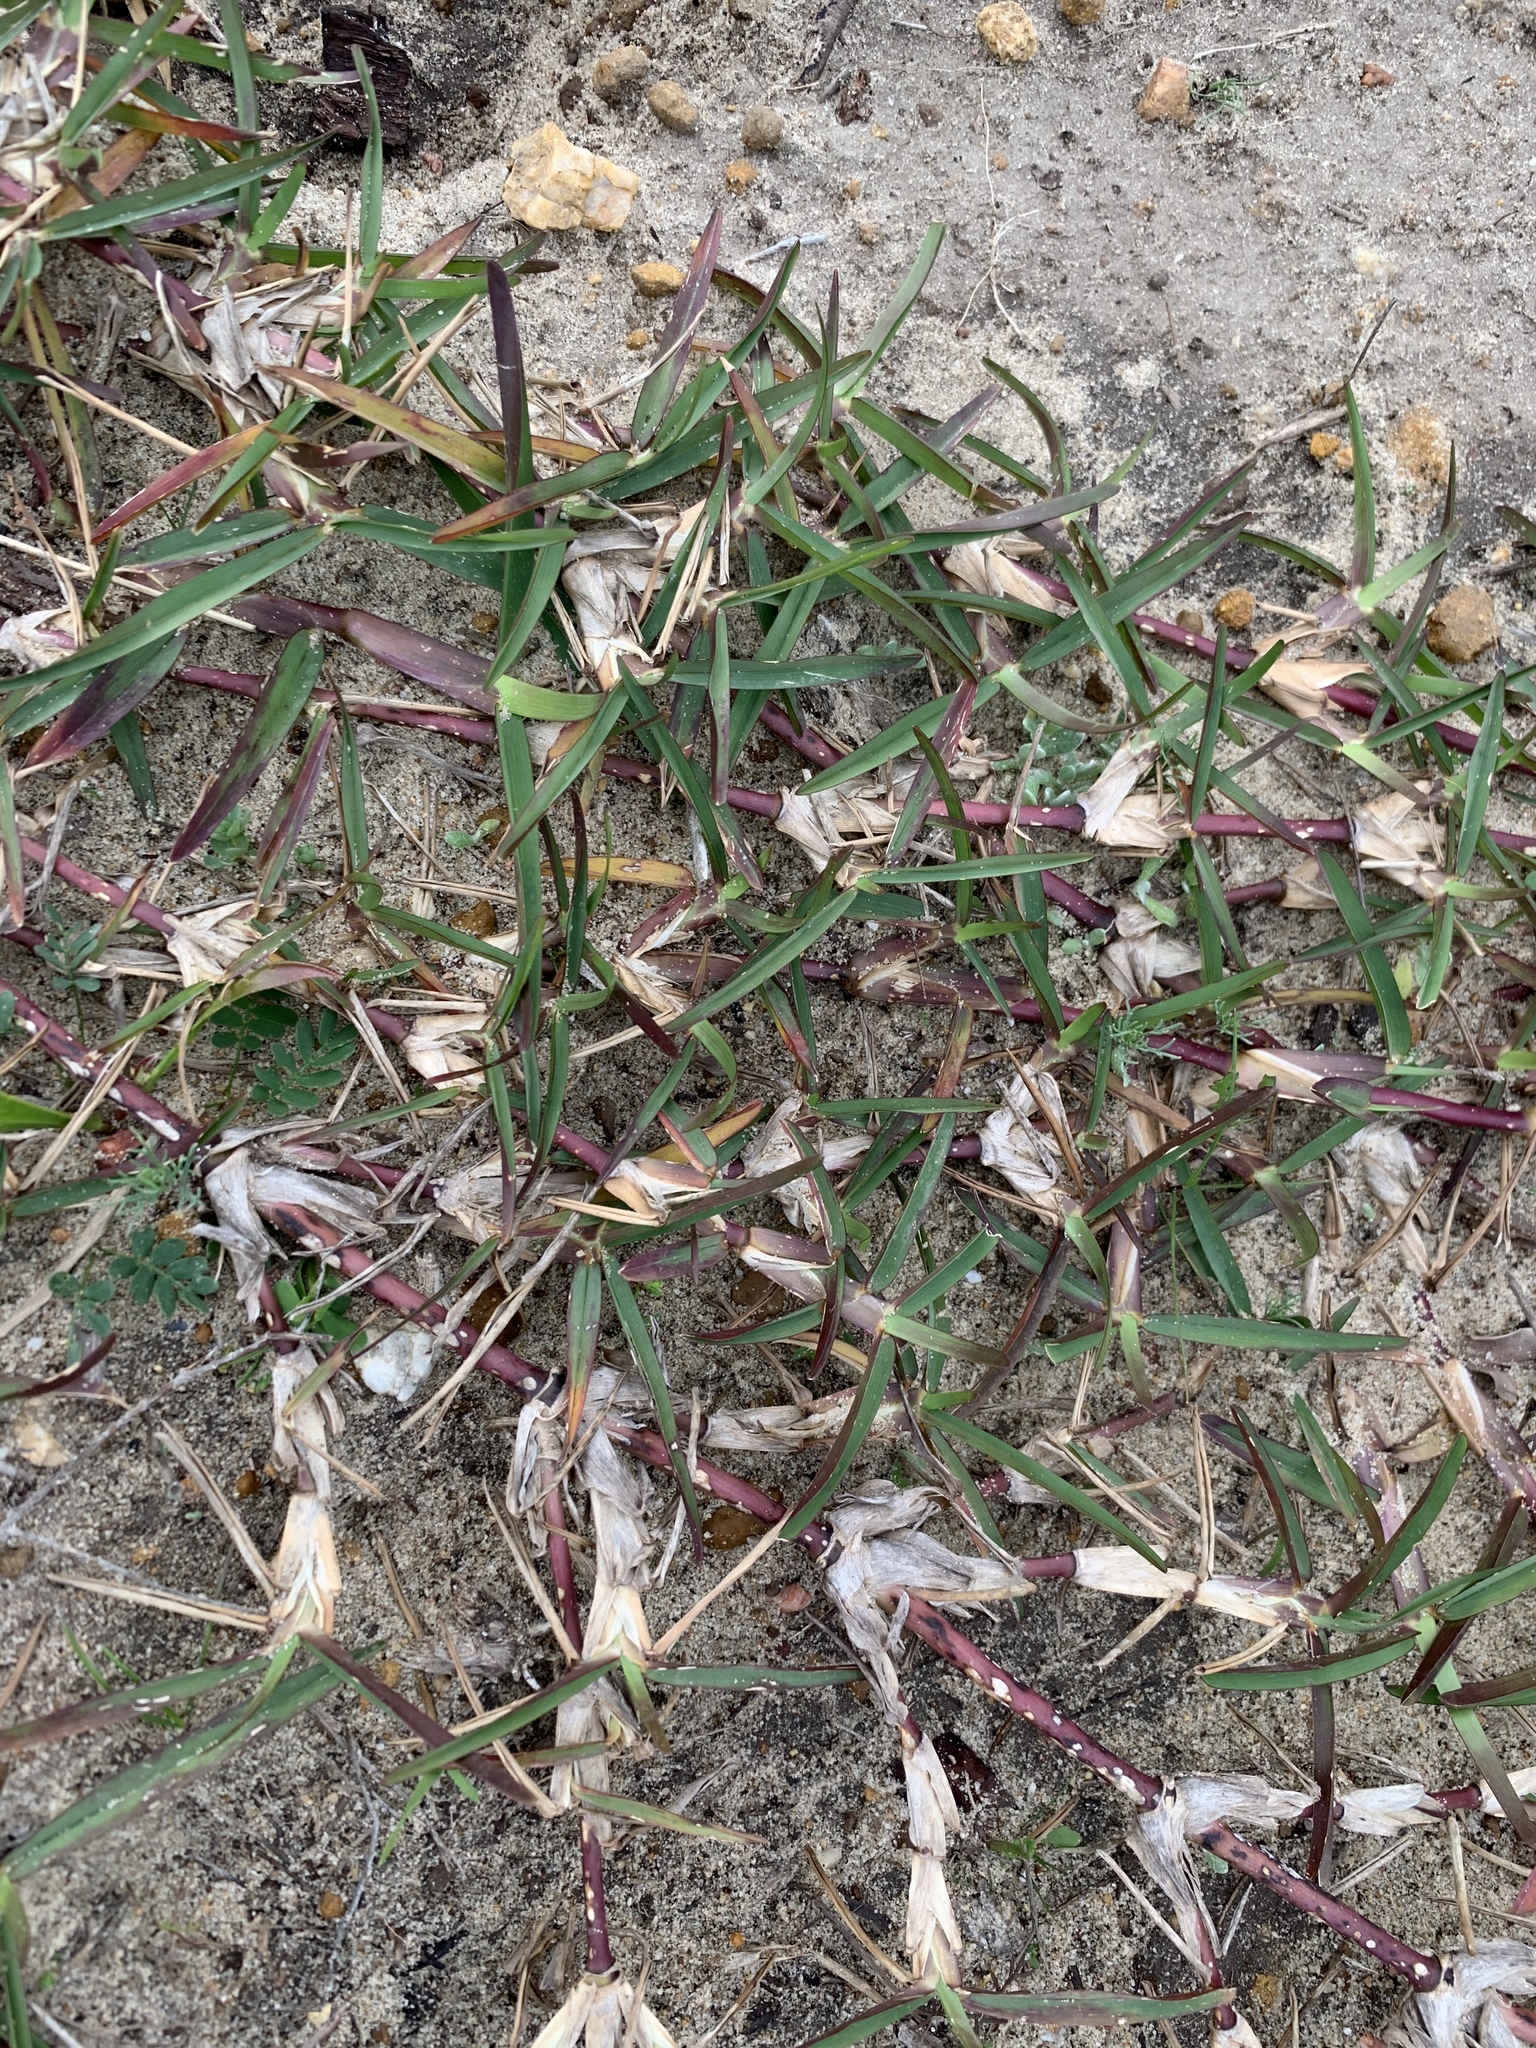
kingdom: Plantae
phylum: Tracheophyta
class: Liliopsida
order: Poales
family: Poaceae
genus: Stenotaphrum
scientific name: Stenotaphrum secundatum
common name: St. augustine grass
